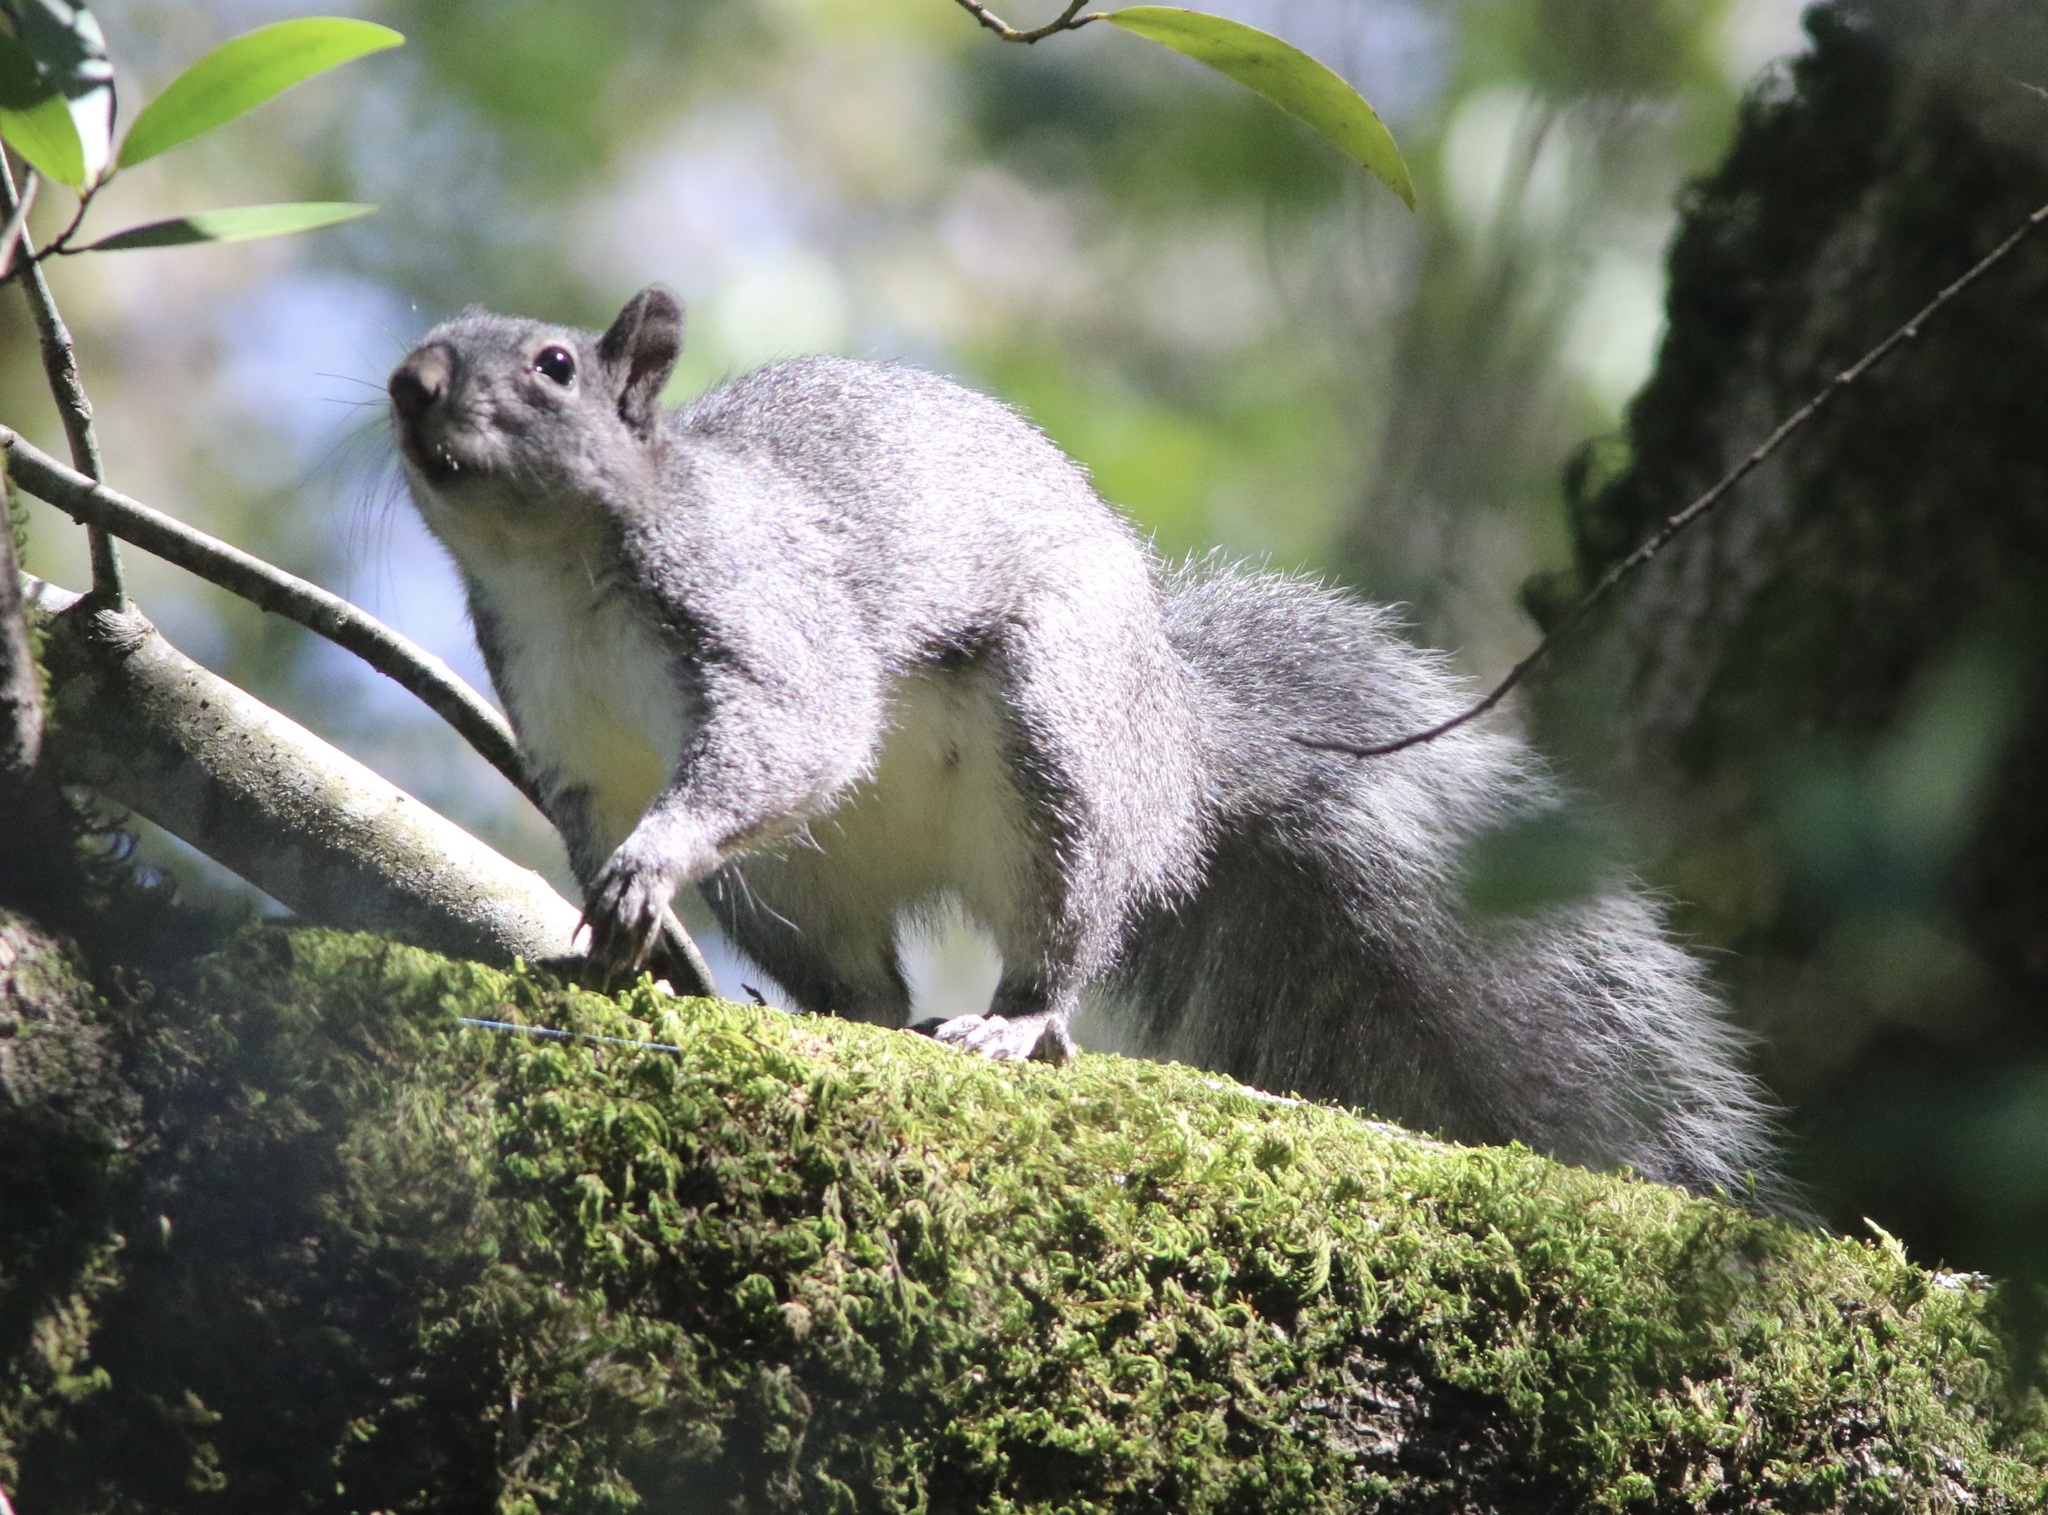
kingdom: Animalia
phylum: Chordata
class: Mammalia
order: Rodentia
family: Sciuridae
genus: Sciurus
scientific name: Sciurus griseus
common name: Western gray squirrel
